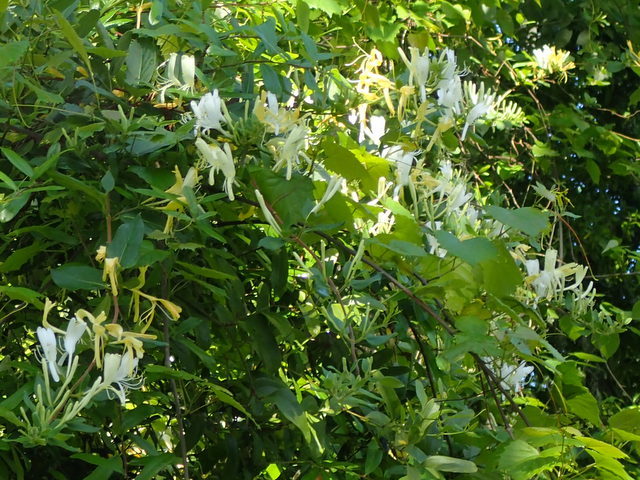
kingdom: Plantae
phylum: Tracheophyta
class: Magnoliopsida
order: Dipsacales
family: Caprifoliaceae
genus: Lonicera
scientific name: Lonicera japonica
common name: Japanese honeysuckle
